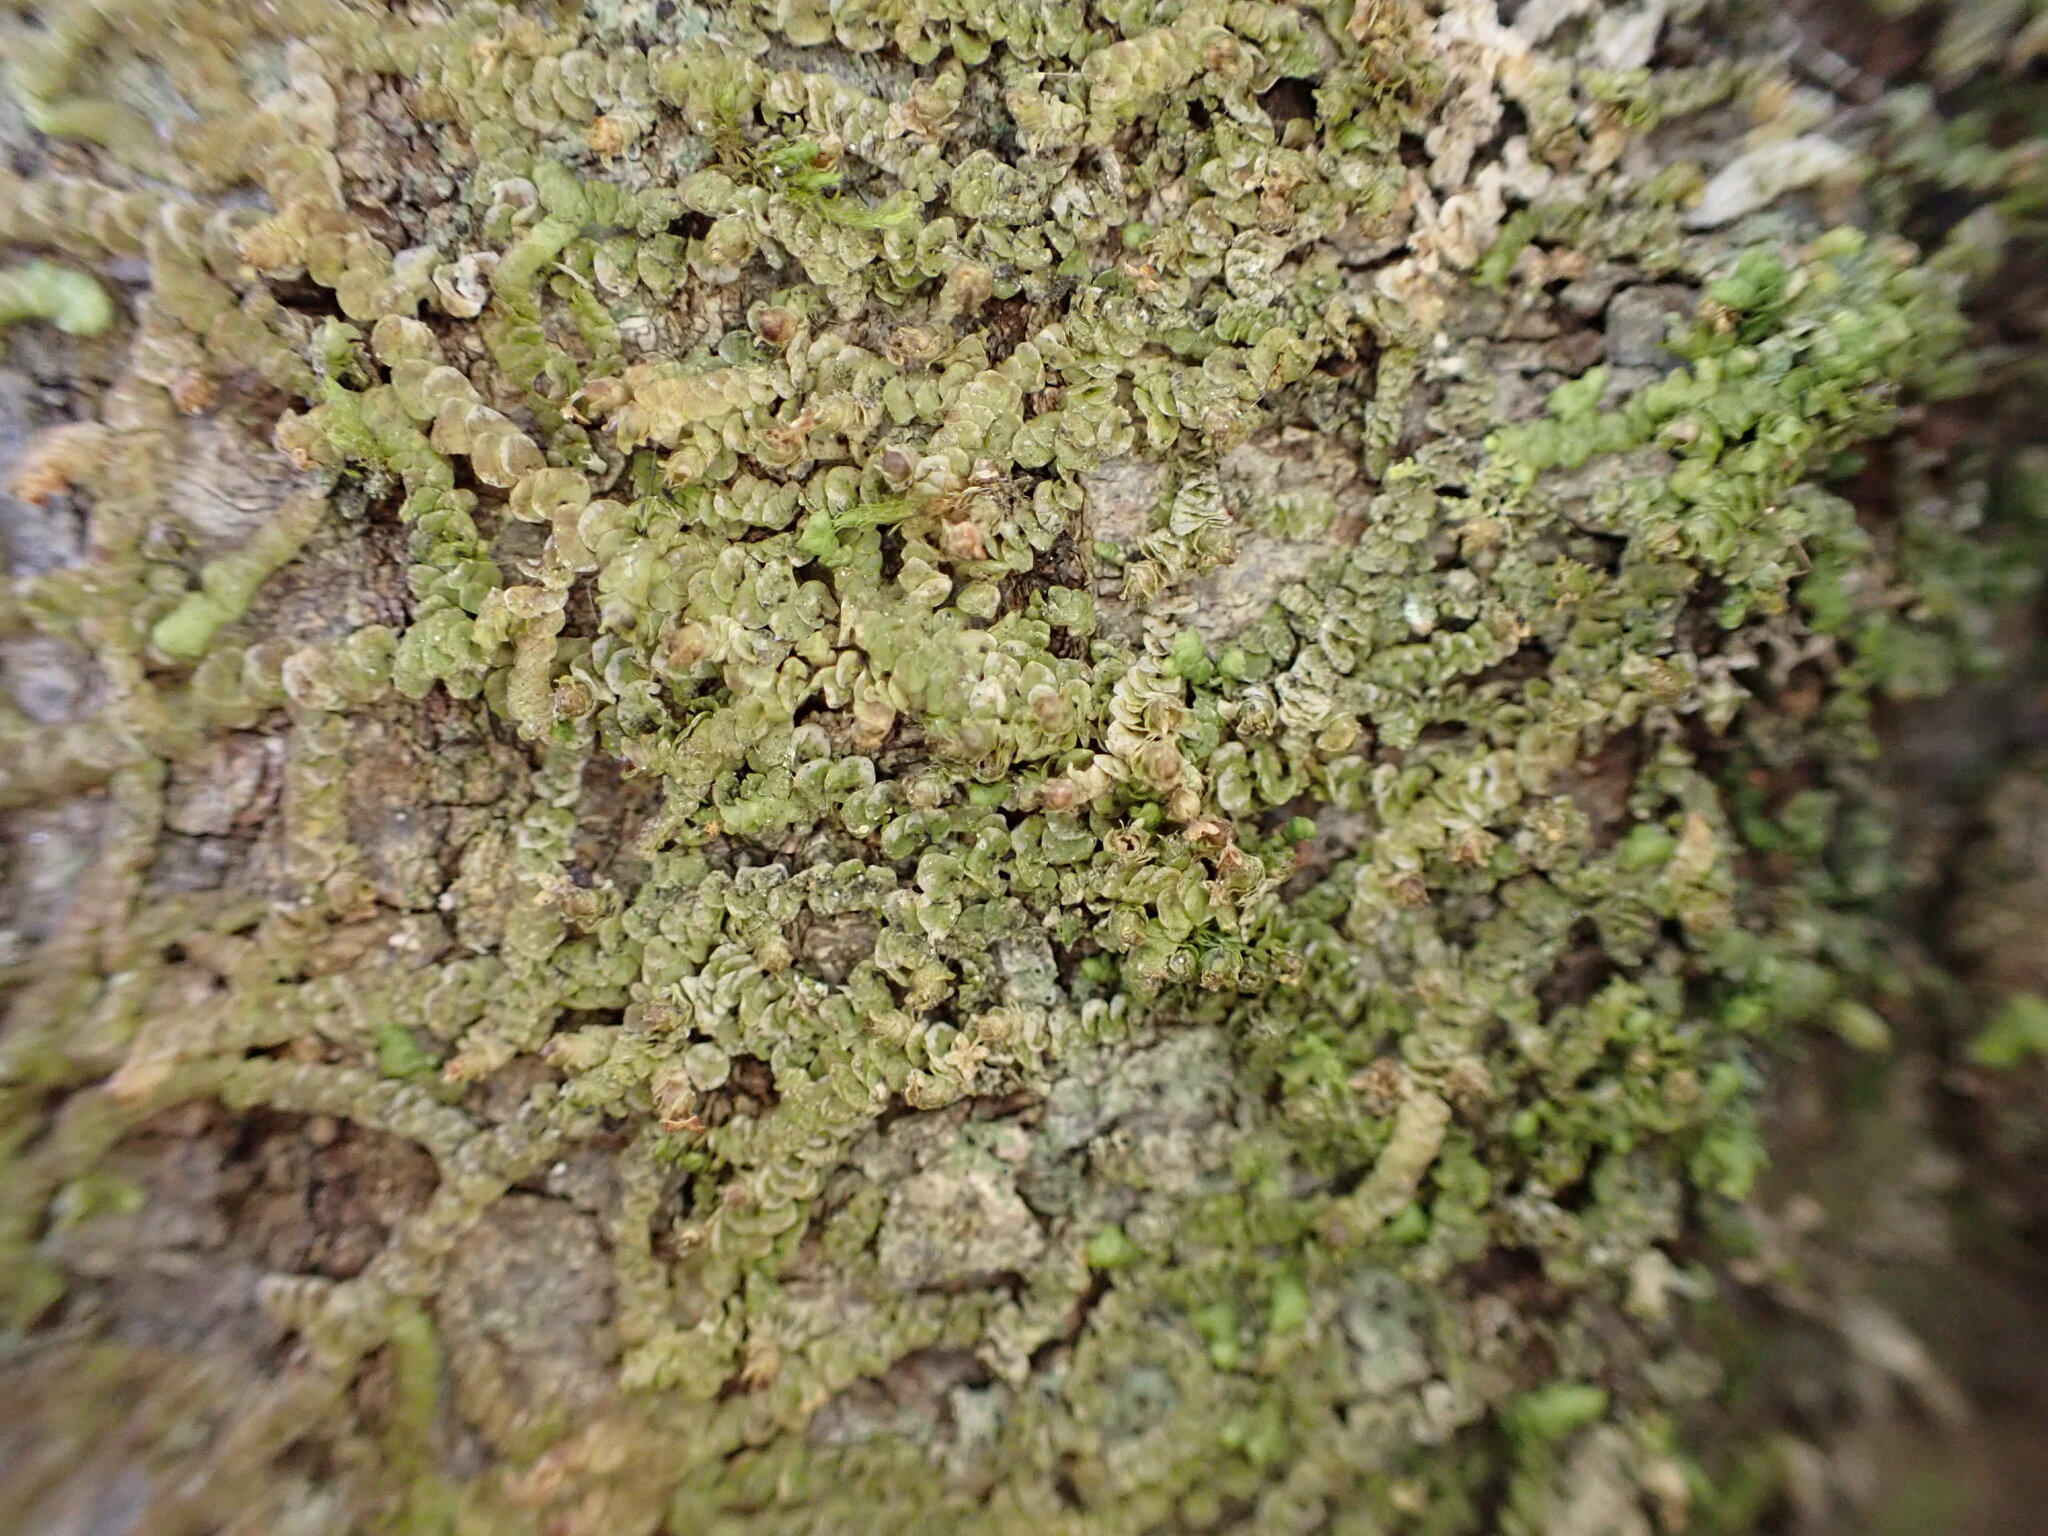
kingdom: Plantae
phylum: Marchantiophyta
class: Jungermanniopsida
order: Porellales
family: Frullaniaceae
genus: Frullania
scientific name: Frullania patula
